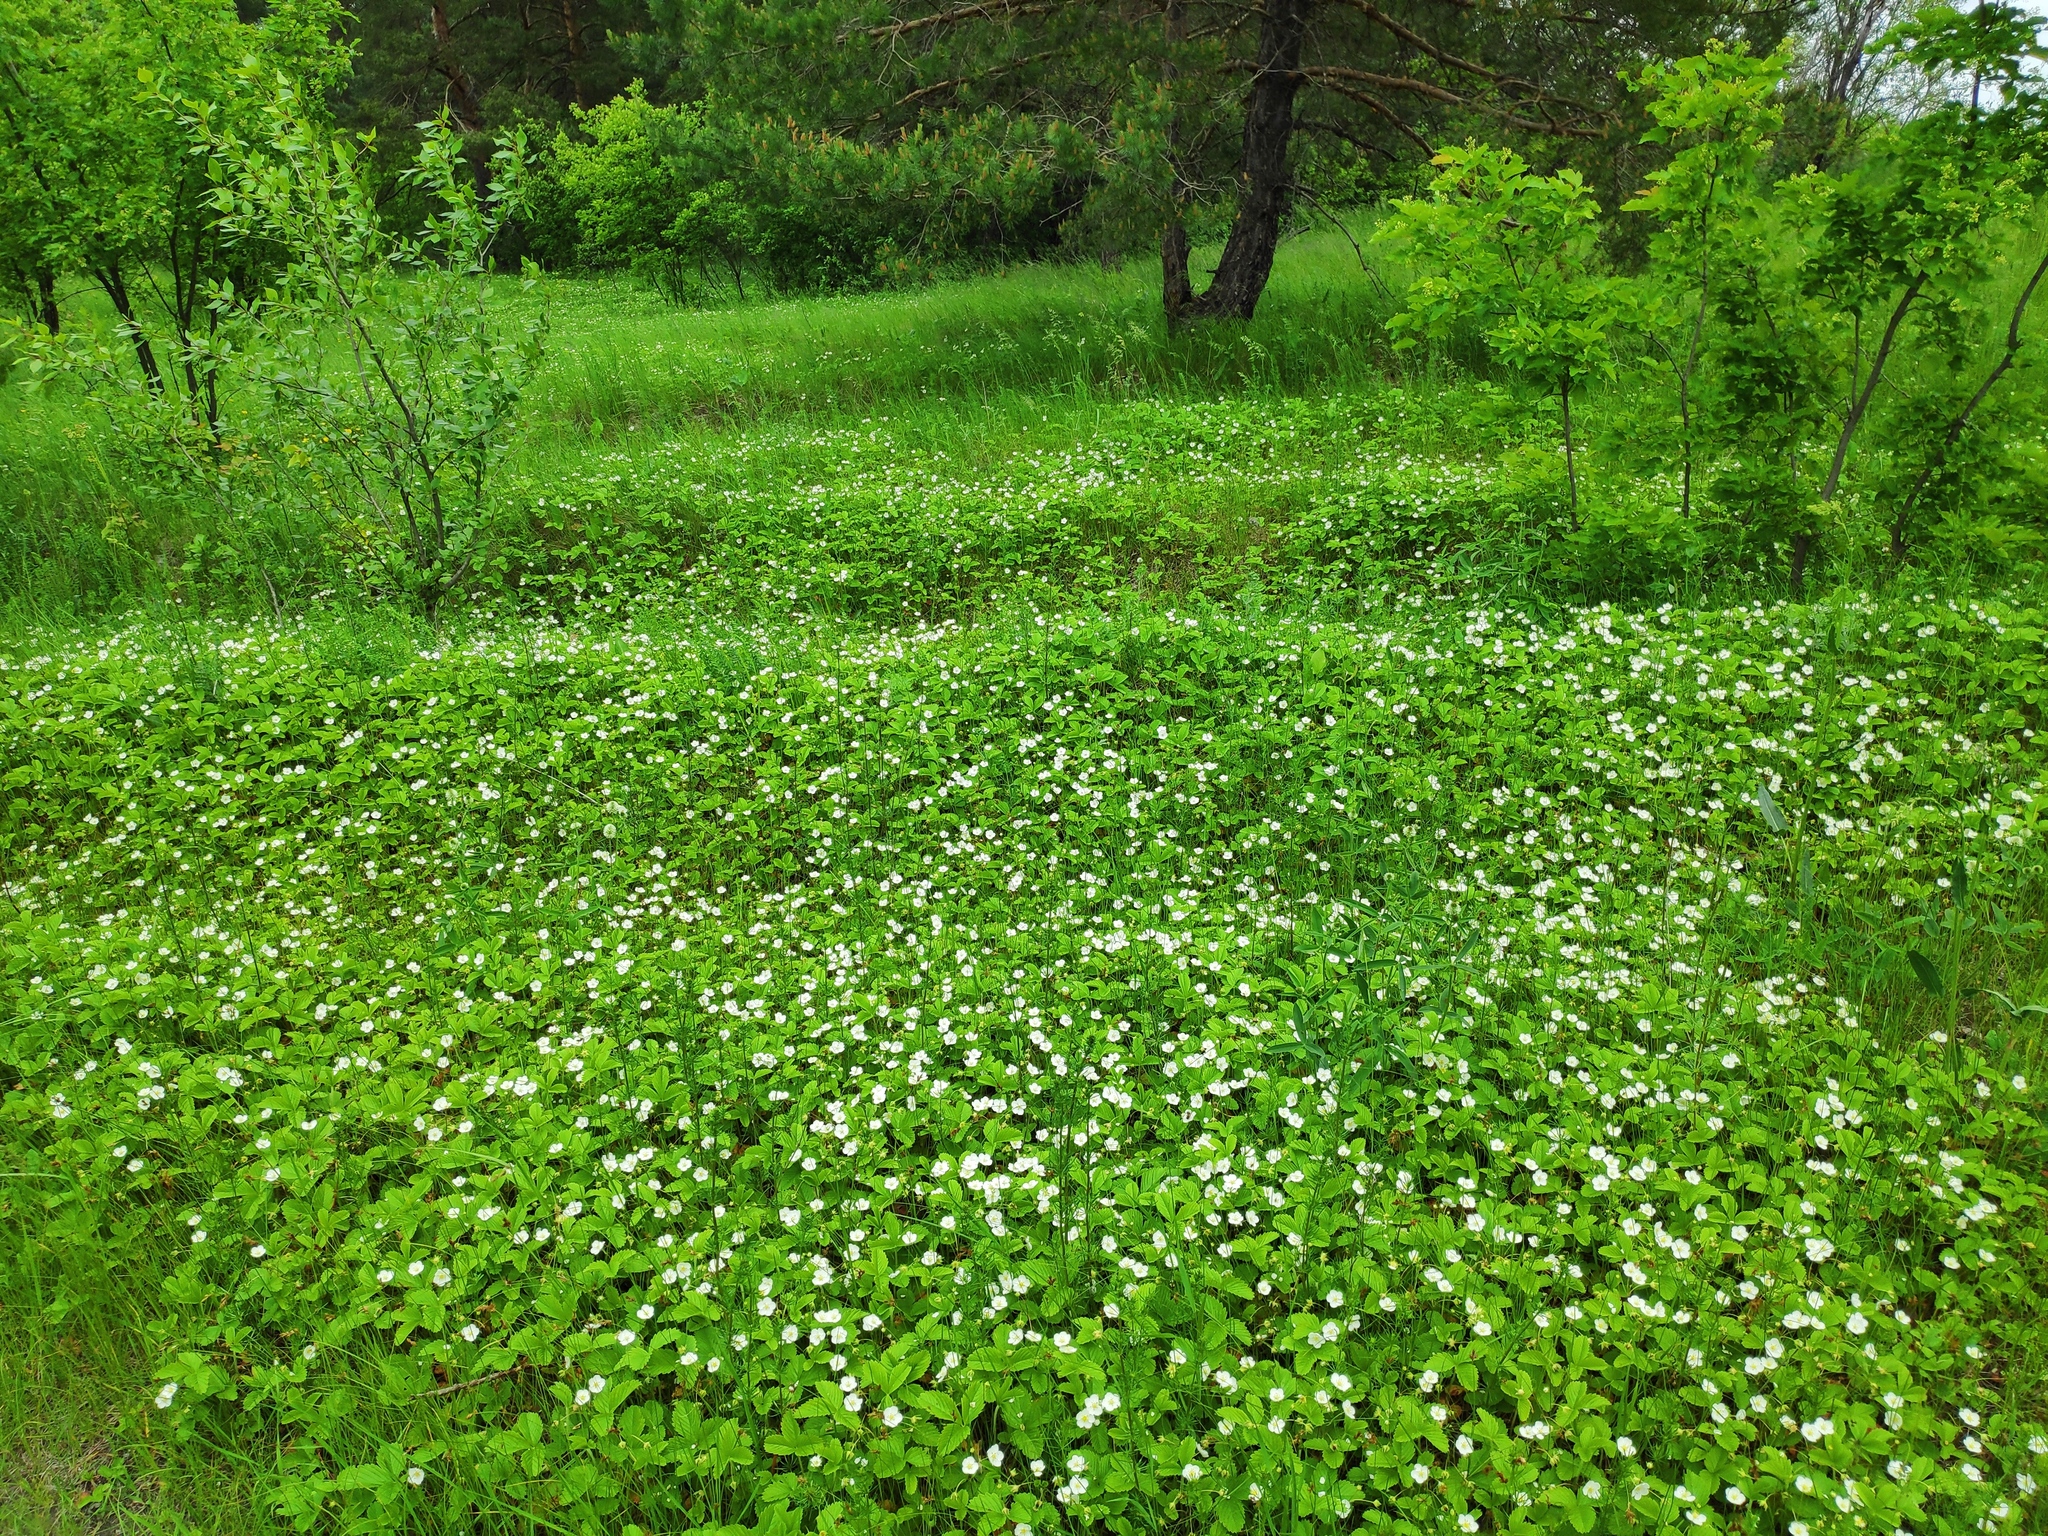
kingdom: Plantae
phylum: Tracheophyta
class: Magnoliopsida
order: Rosales
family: Rosaceae
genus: Fragaria
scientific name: Fragaria viridis
